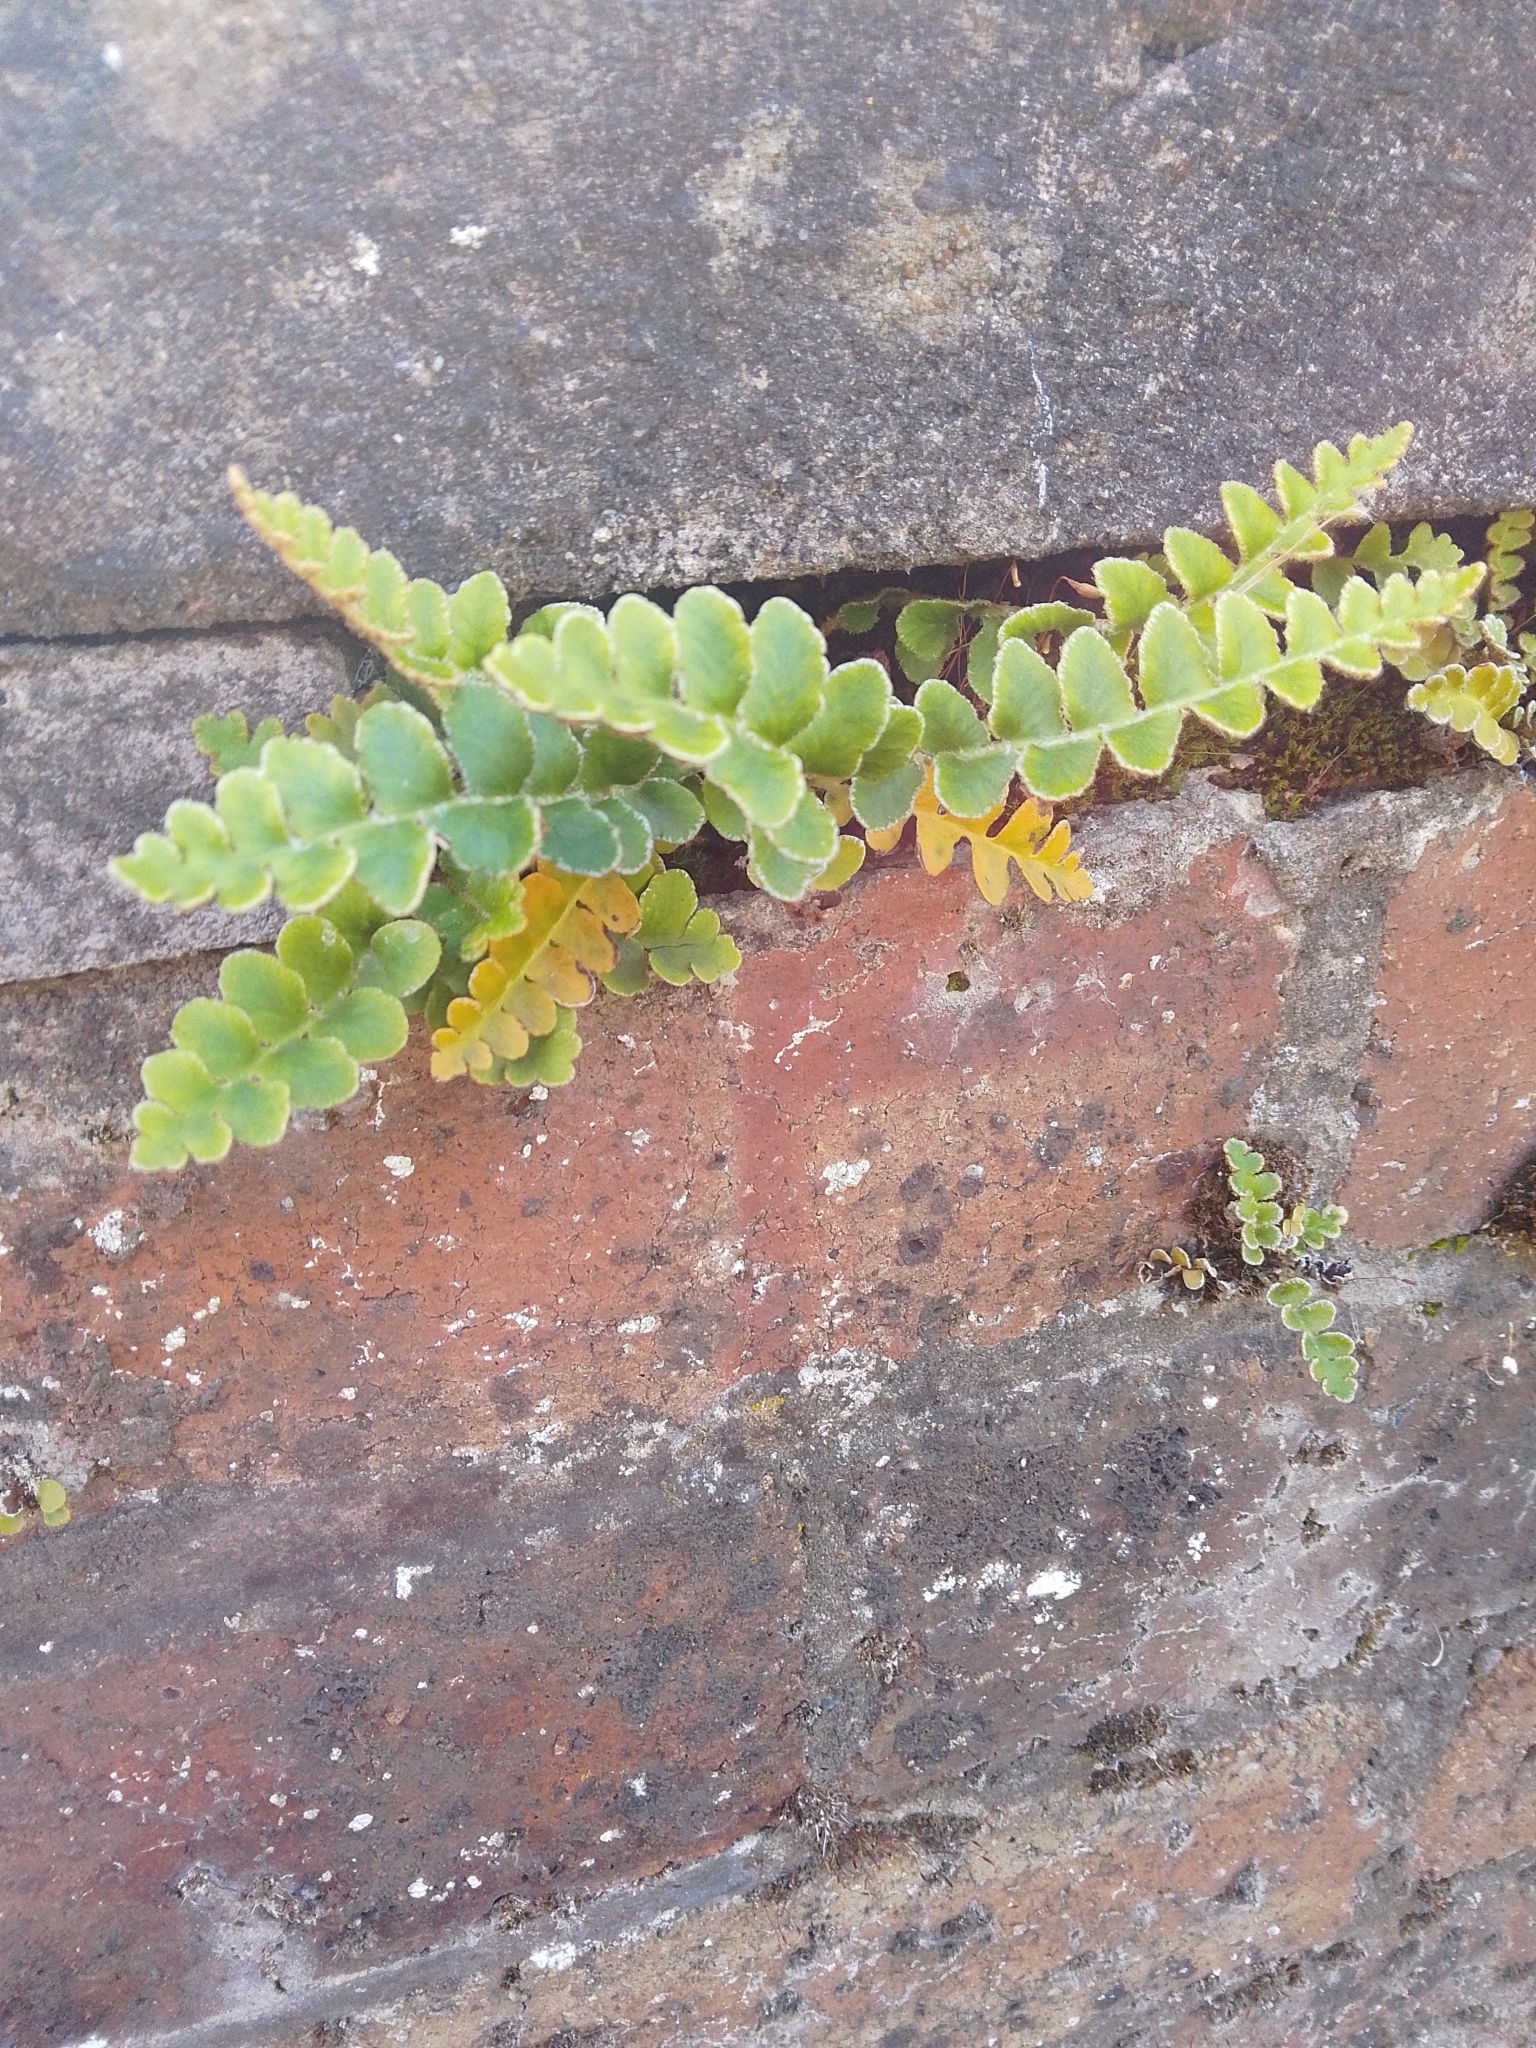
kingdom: Plantae
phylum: Tracheophyta
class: Polypodiopsida
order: Polypodiales
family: Aspleniaceae
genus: Asplenium
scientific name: Asplenium ceterach
